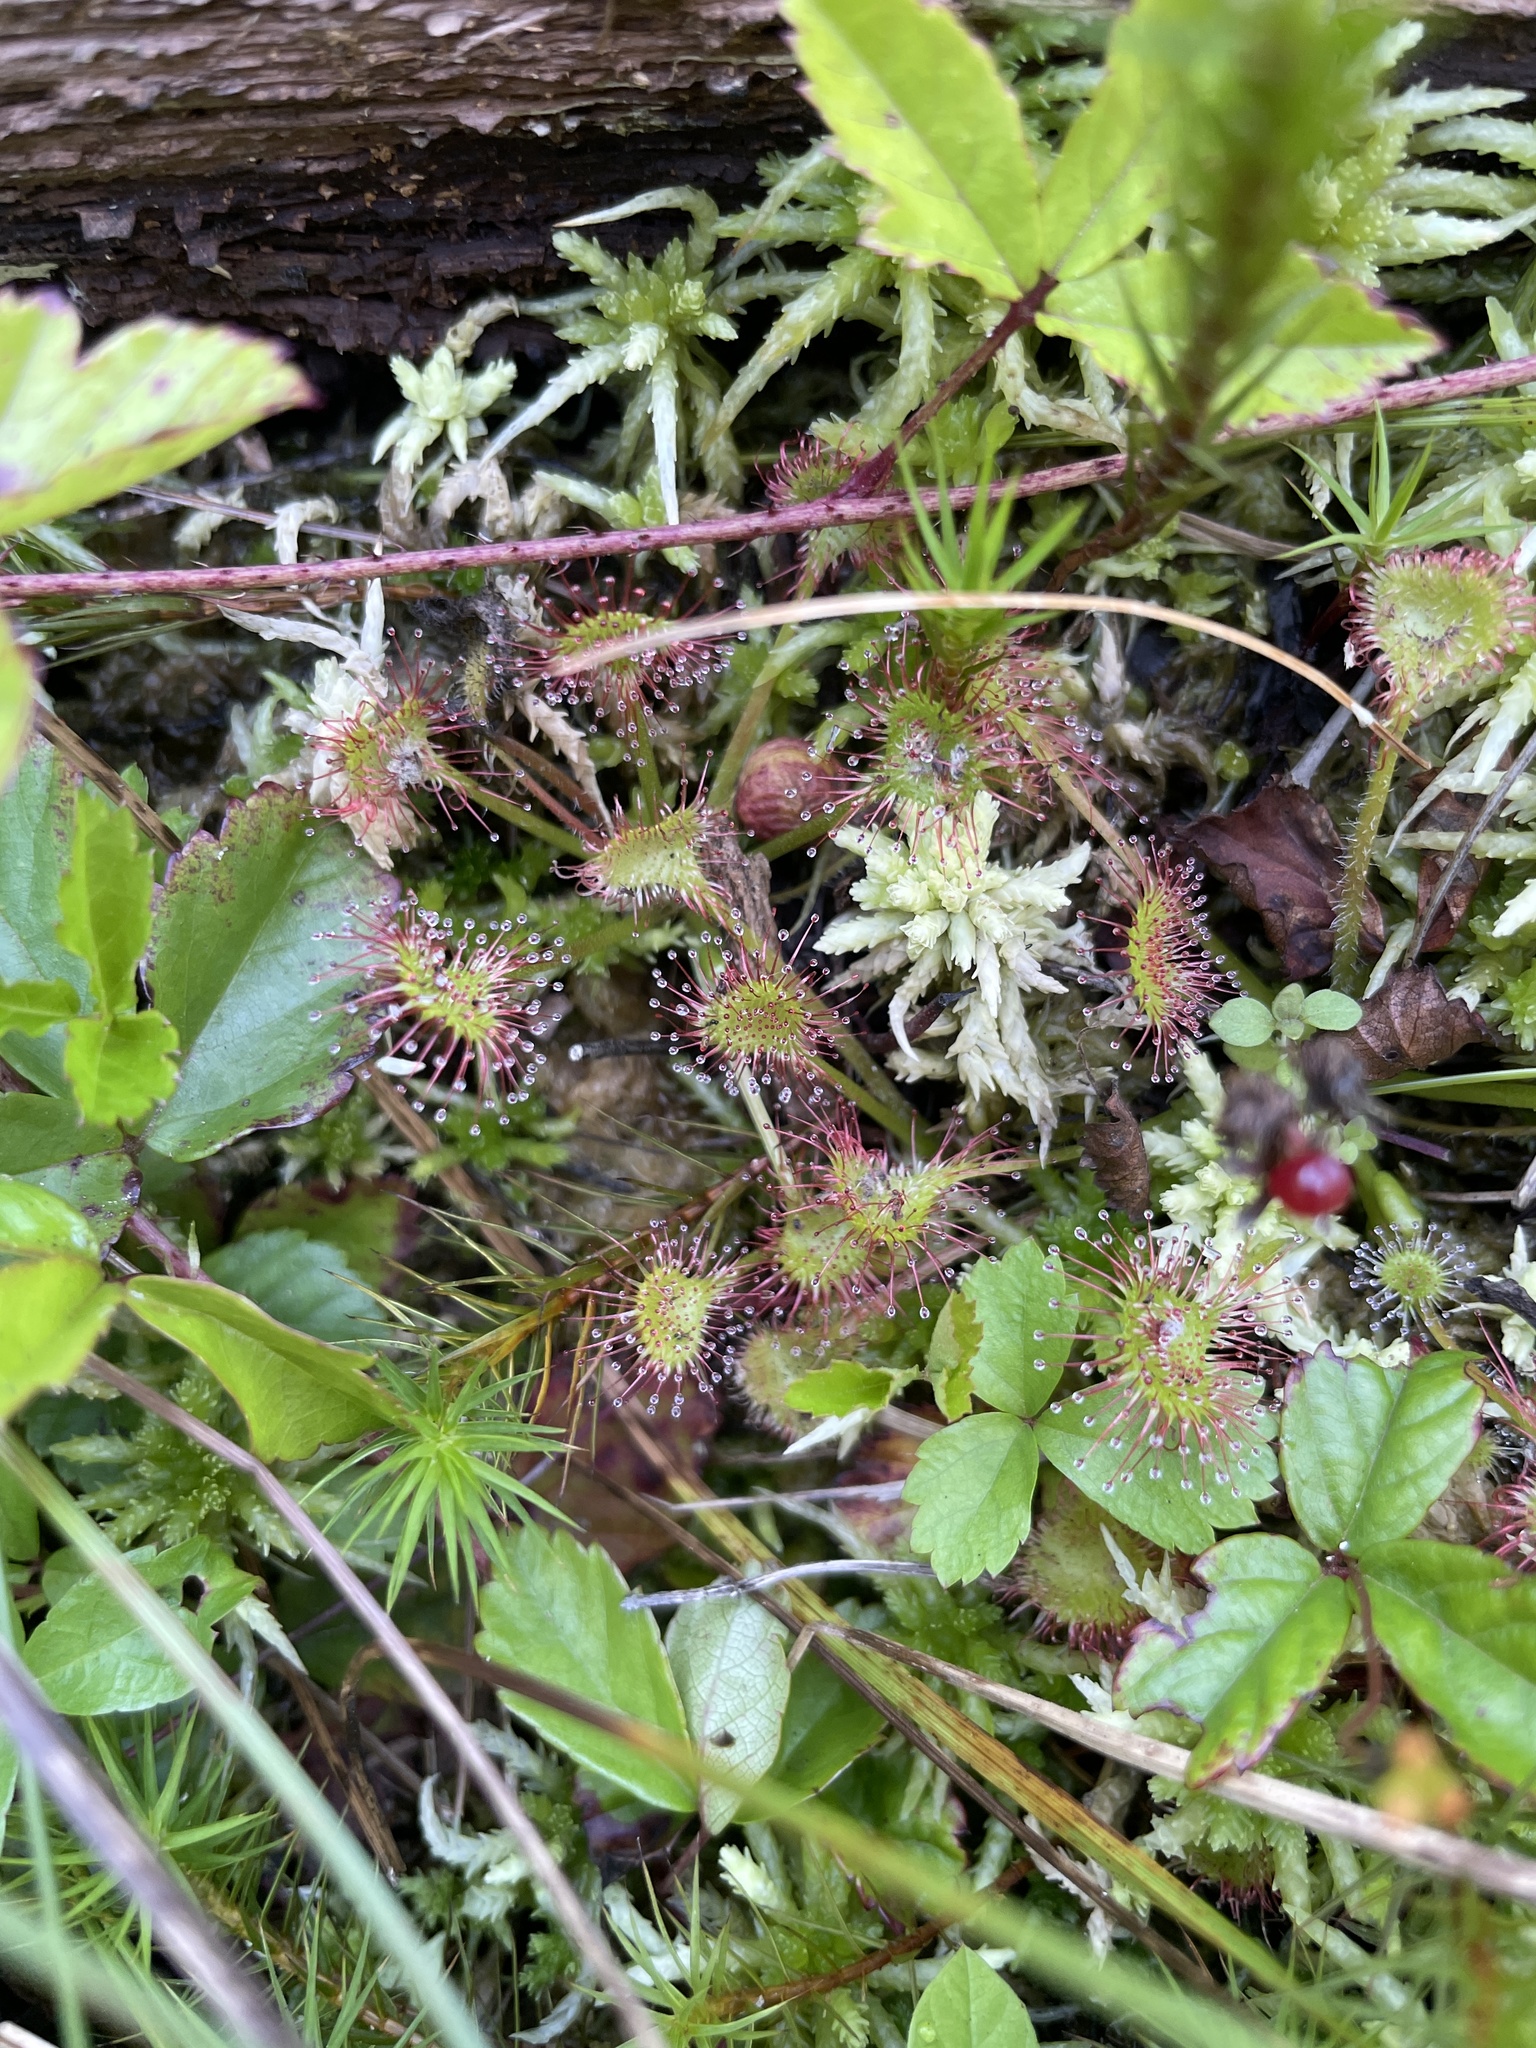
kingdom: Plantae
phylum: Tracheophyta
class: Magnoliopsida
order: Caryophyllales
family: Droseraceae
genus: Drosera
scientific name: Drosera rotundifolia
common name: Round-leaved sundew
